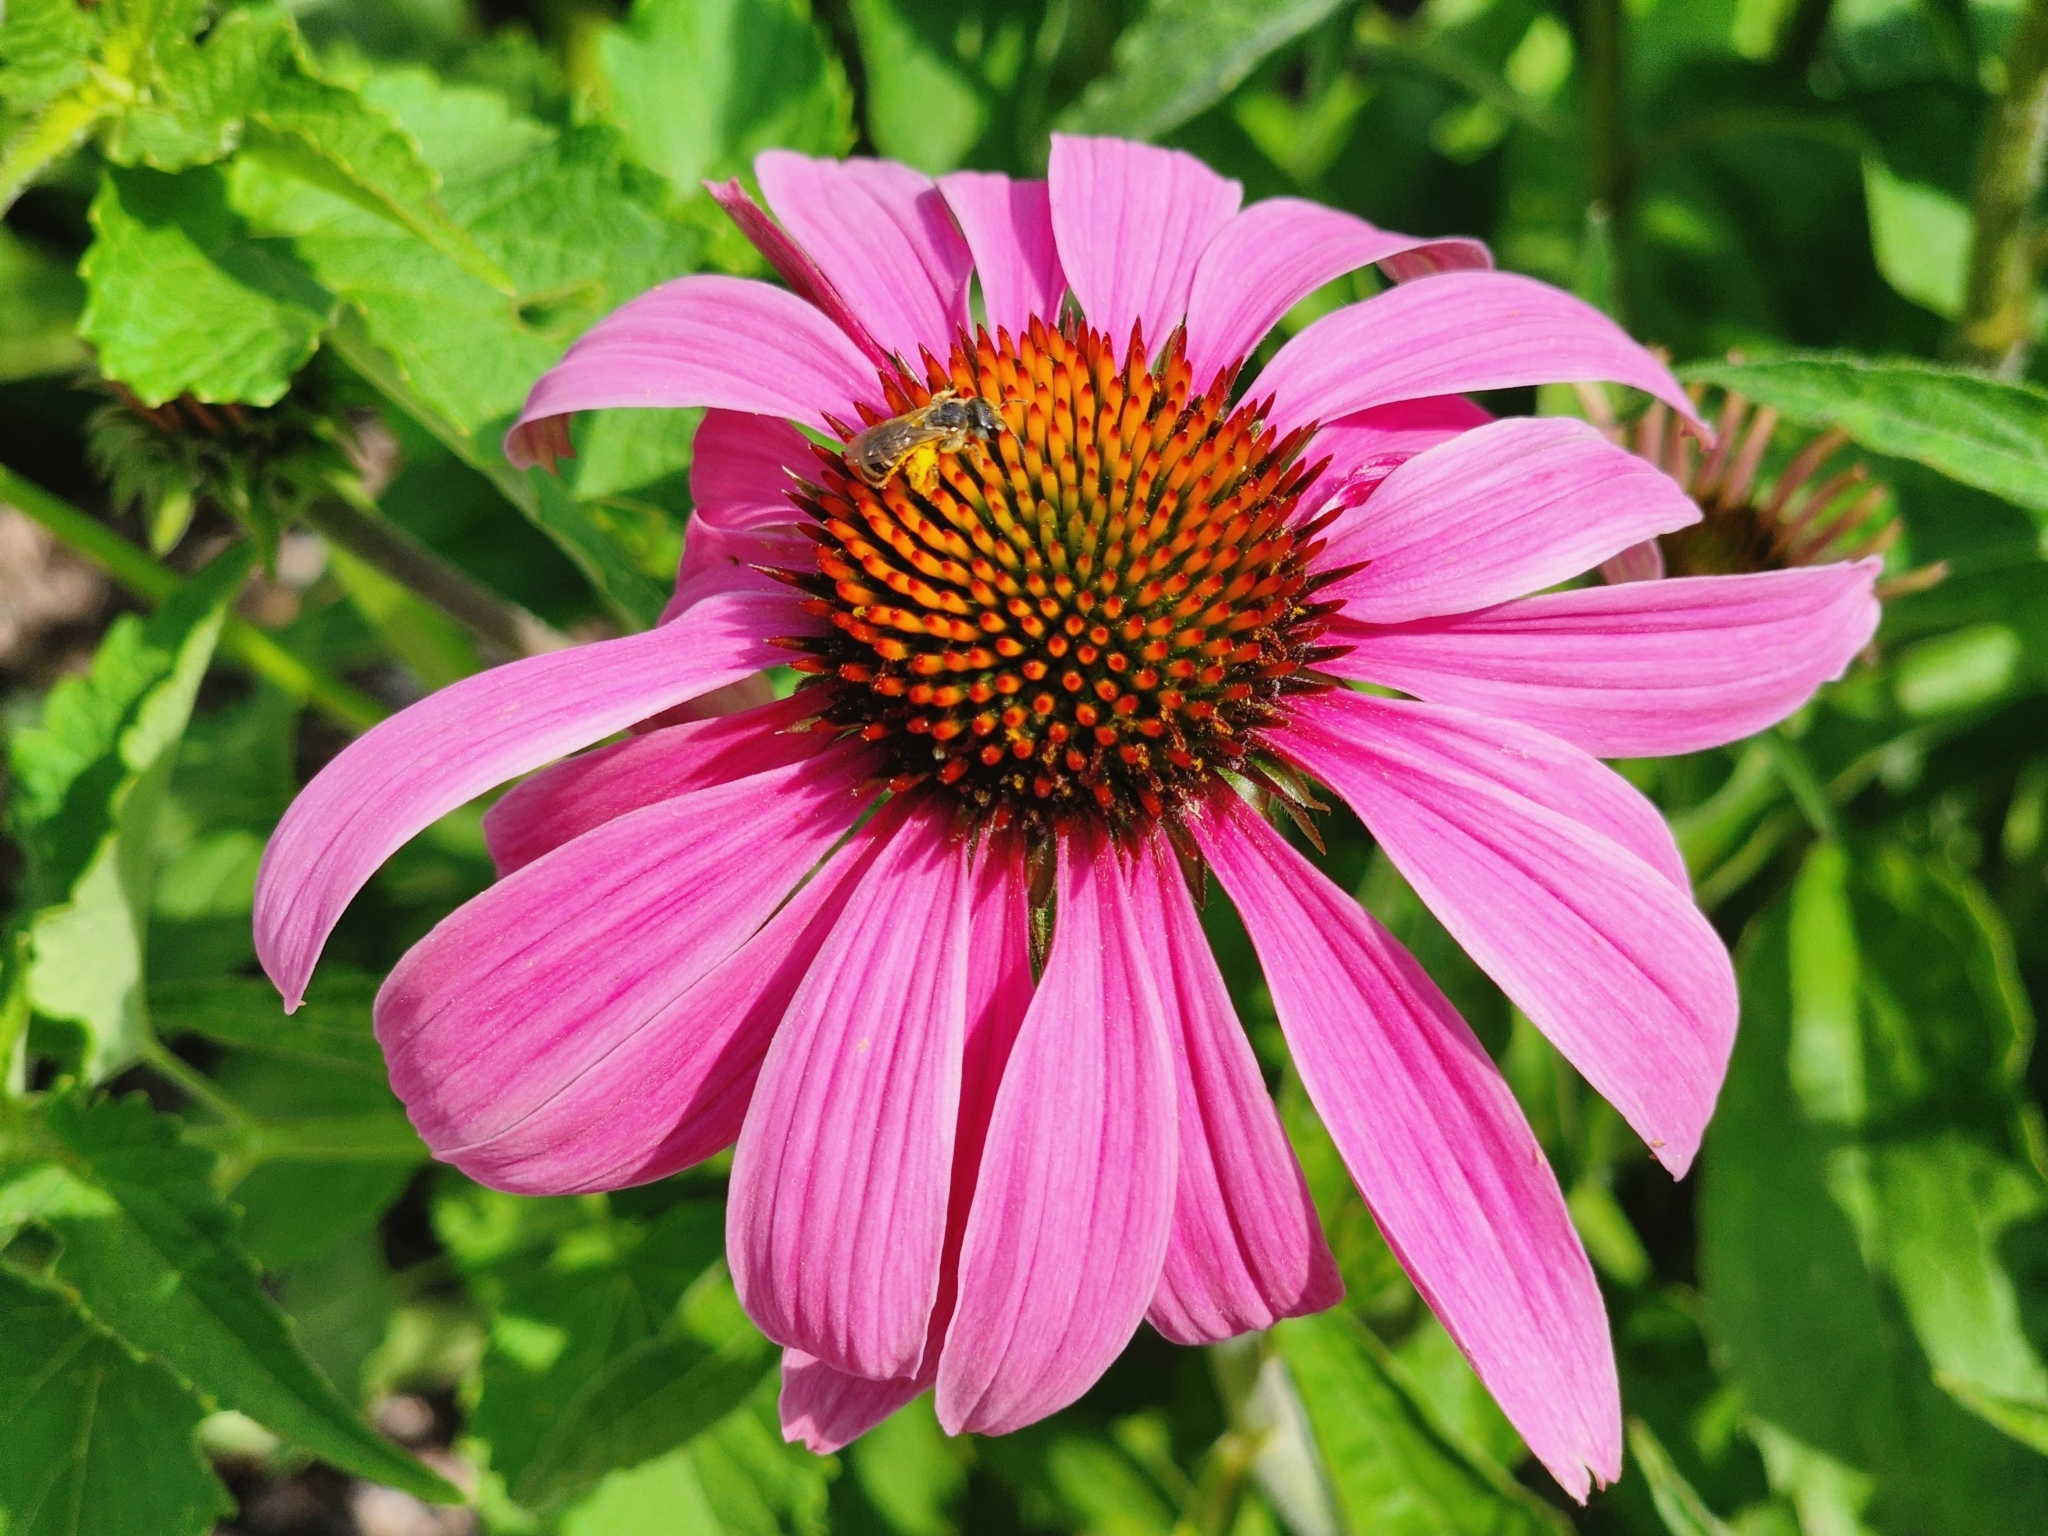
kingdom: Animalia
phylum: Arthropoda
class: Insecta
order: Hymenoptera
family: Halictidae
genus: Halictus
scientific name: Halictus ligatus
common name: Ligated furrow bee
